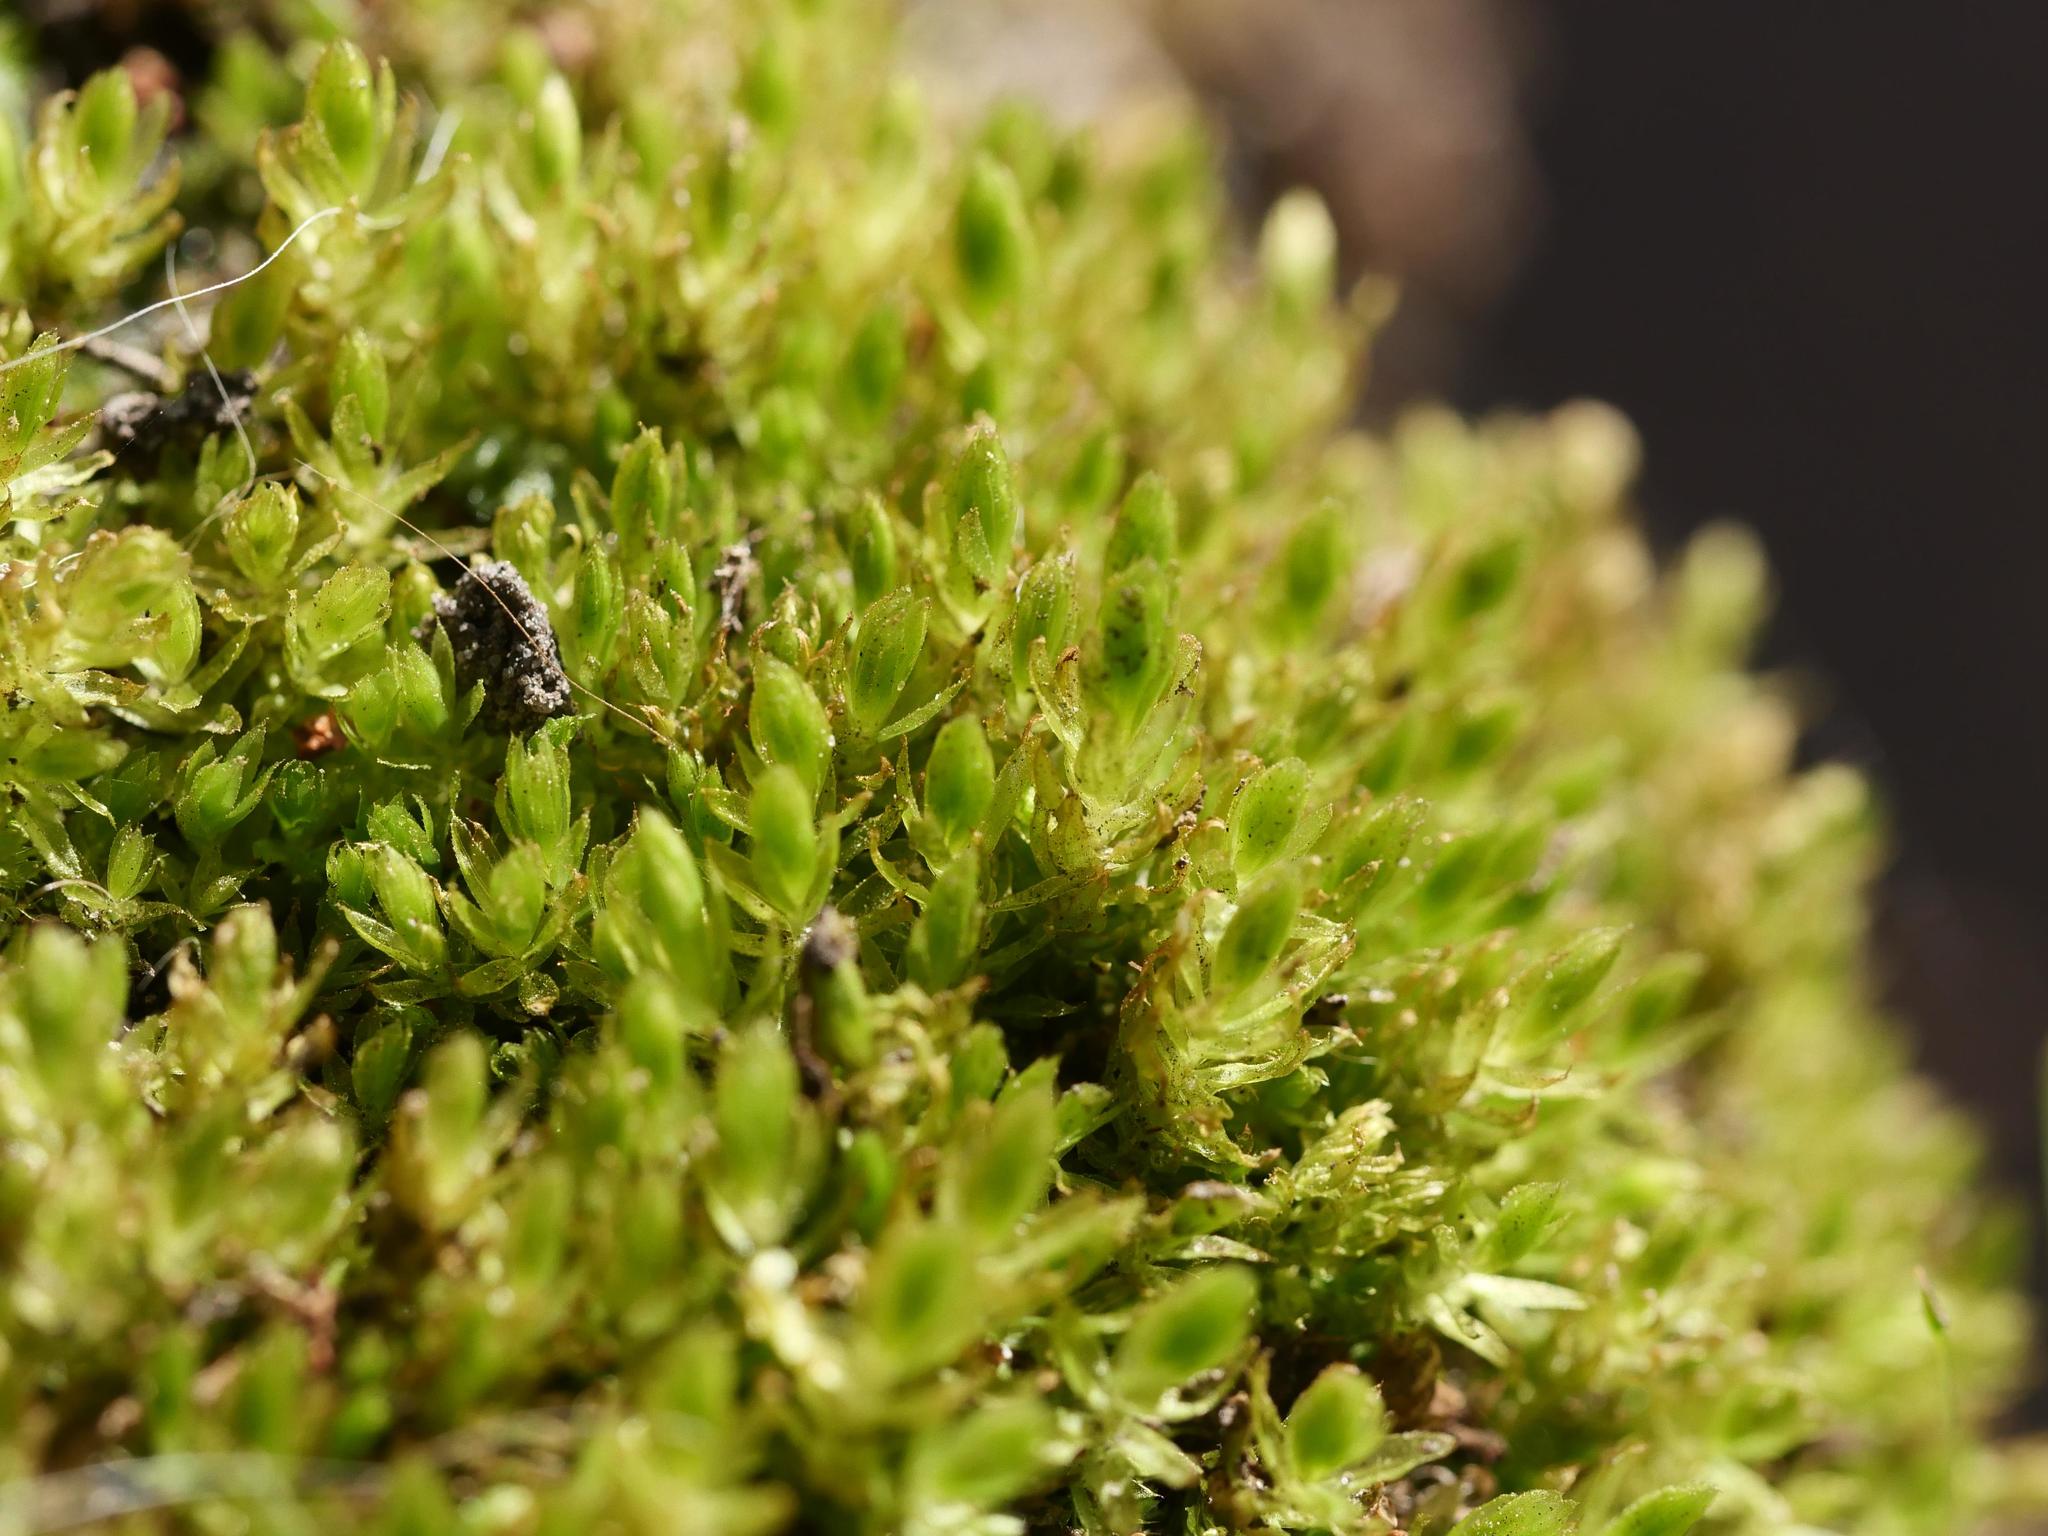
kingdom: Plantae
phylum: Bryophyta
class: Bryopsida
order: Bryales
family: Mniaceae
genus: Mnium
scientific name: Mnium hornum
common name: Swan's-neck leafy moss
